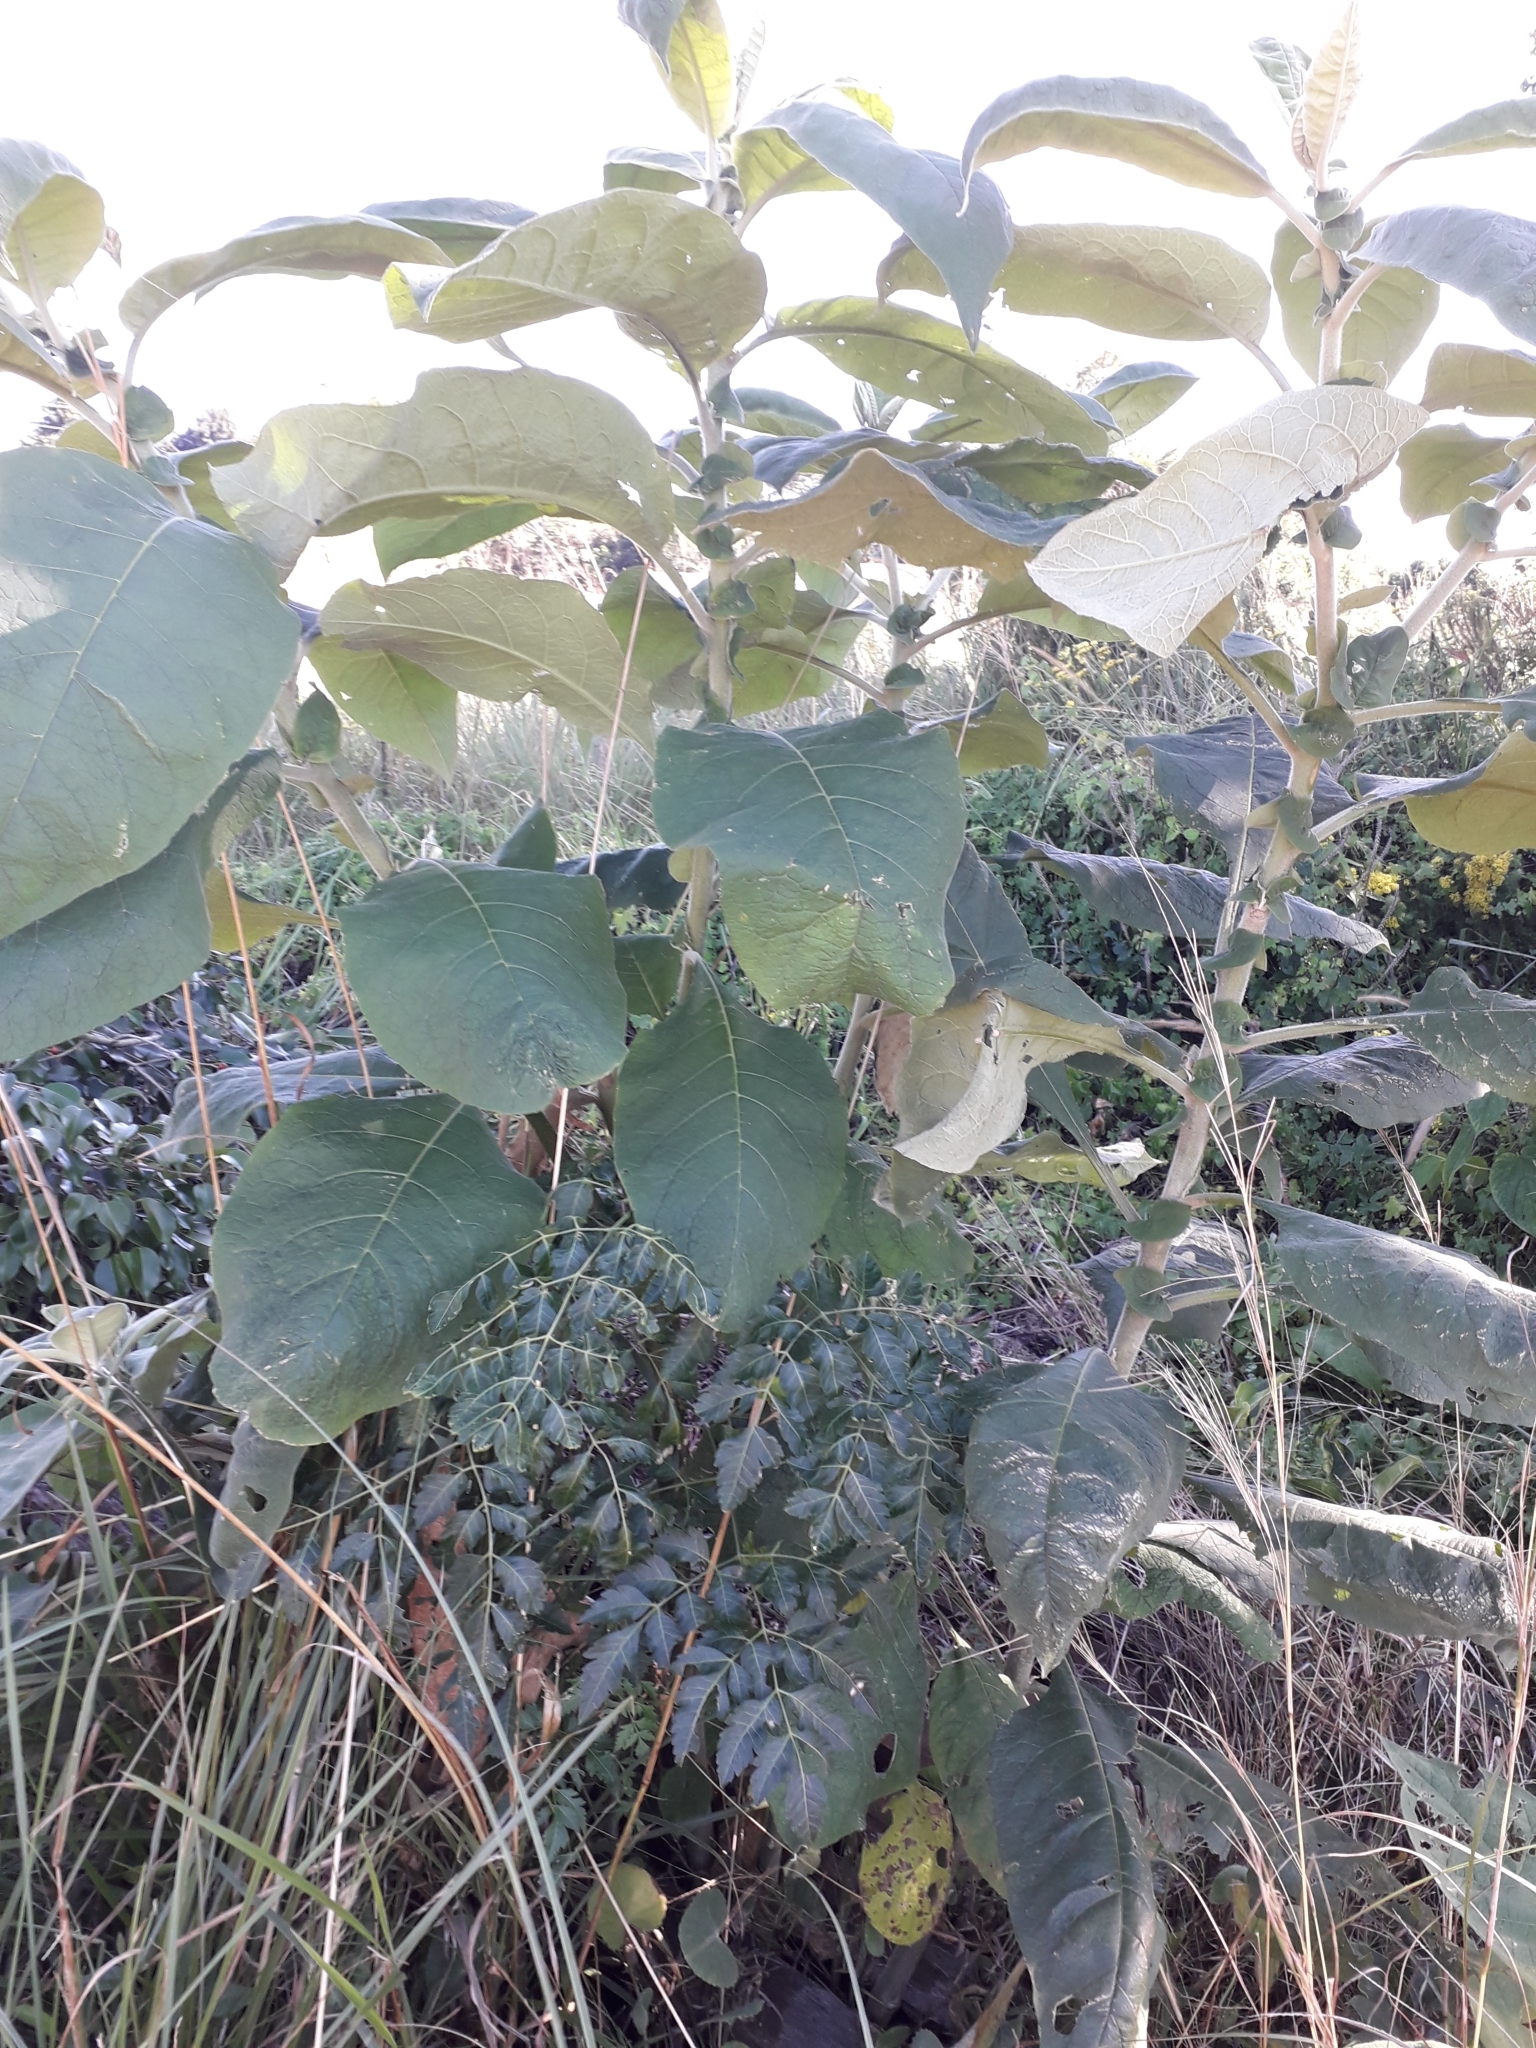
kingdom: Plantae
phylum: Tracheophyta
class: Magnoliopsida
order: Solanales
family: Solanaceae
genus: Solanum
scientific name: Solanum mauritianum
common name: Earleaf nightshade
